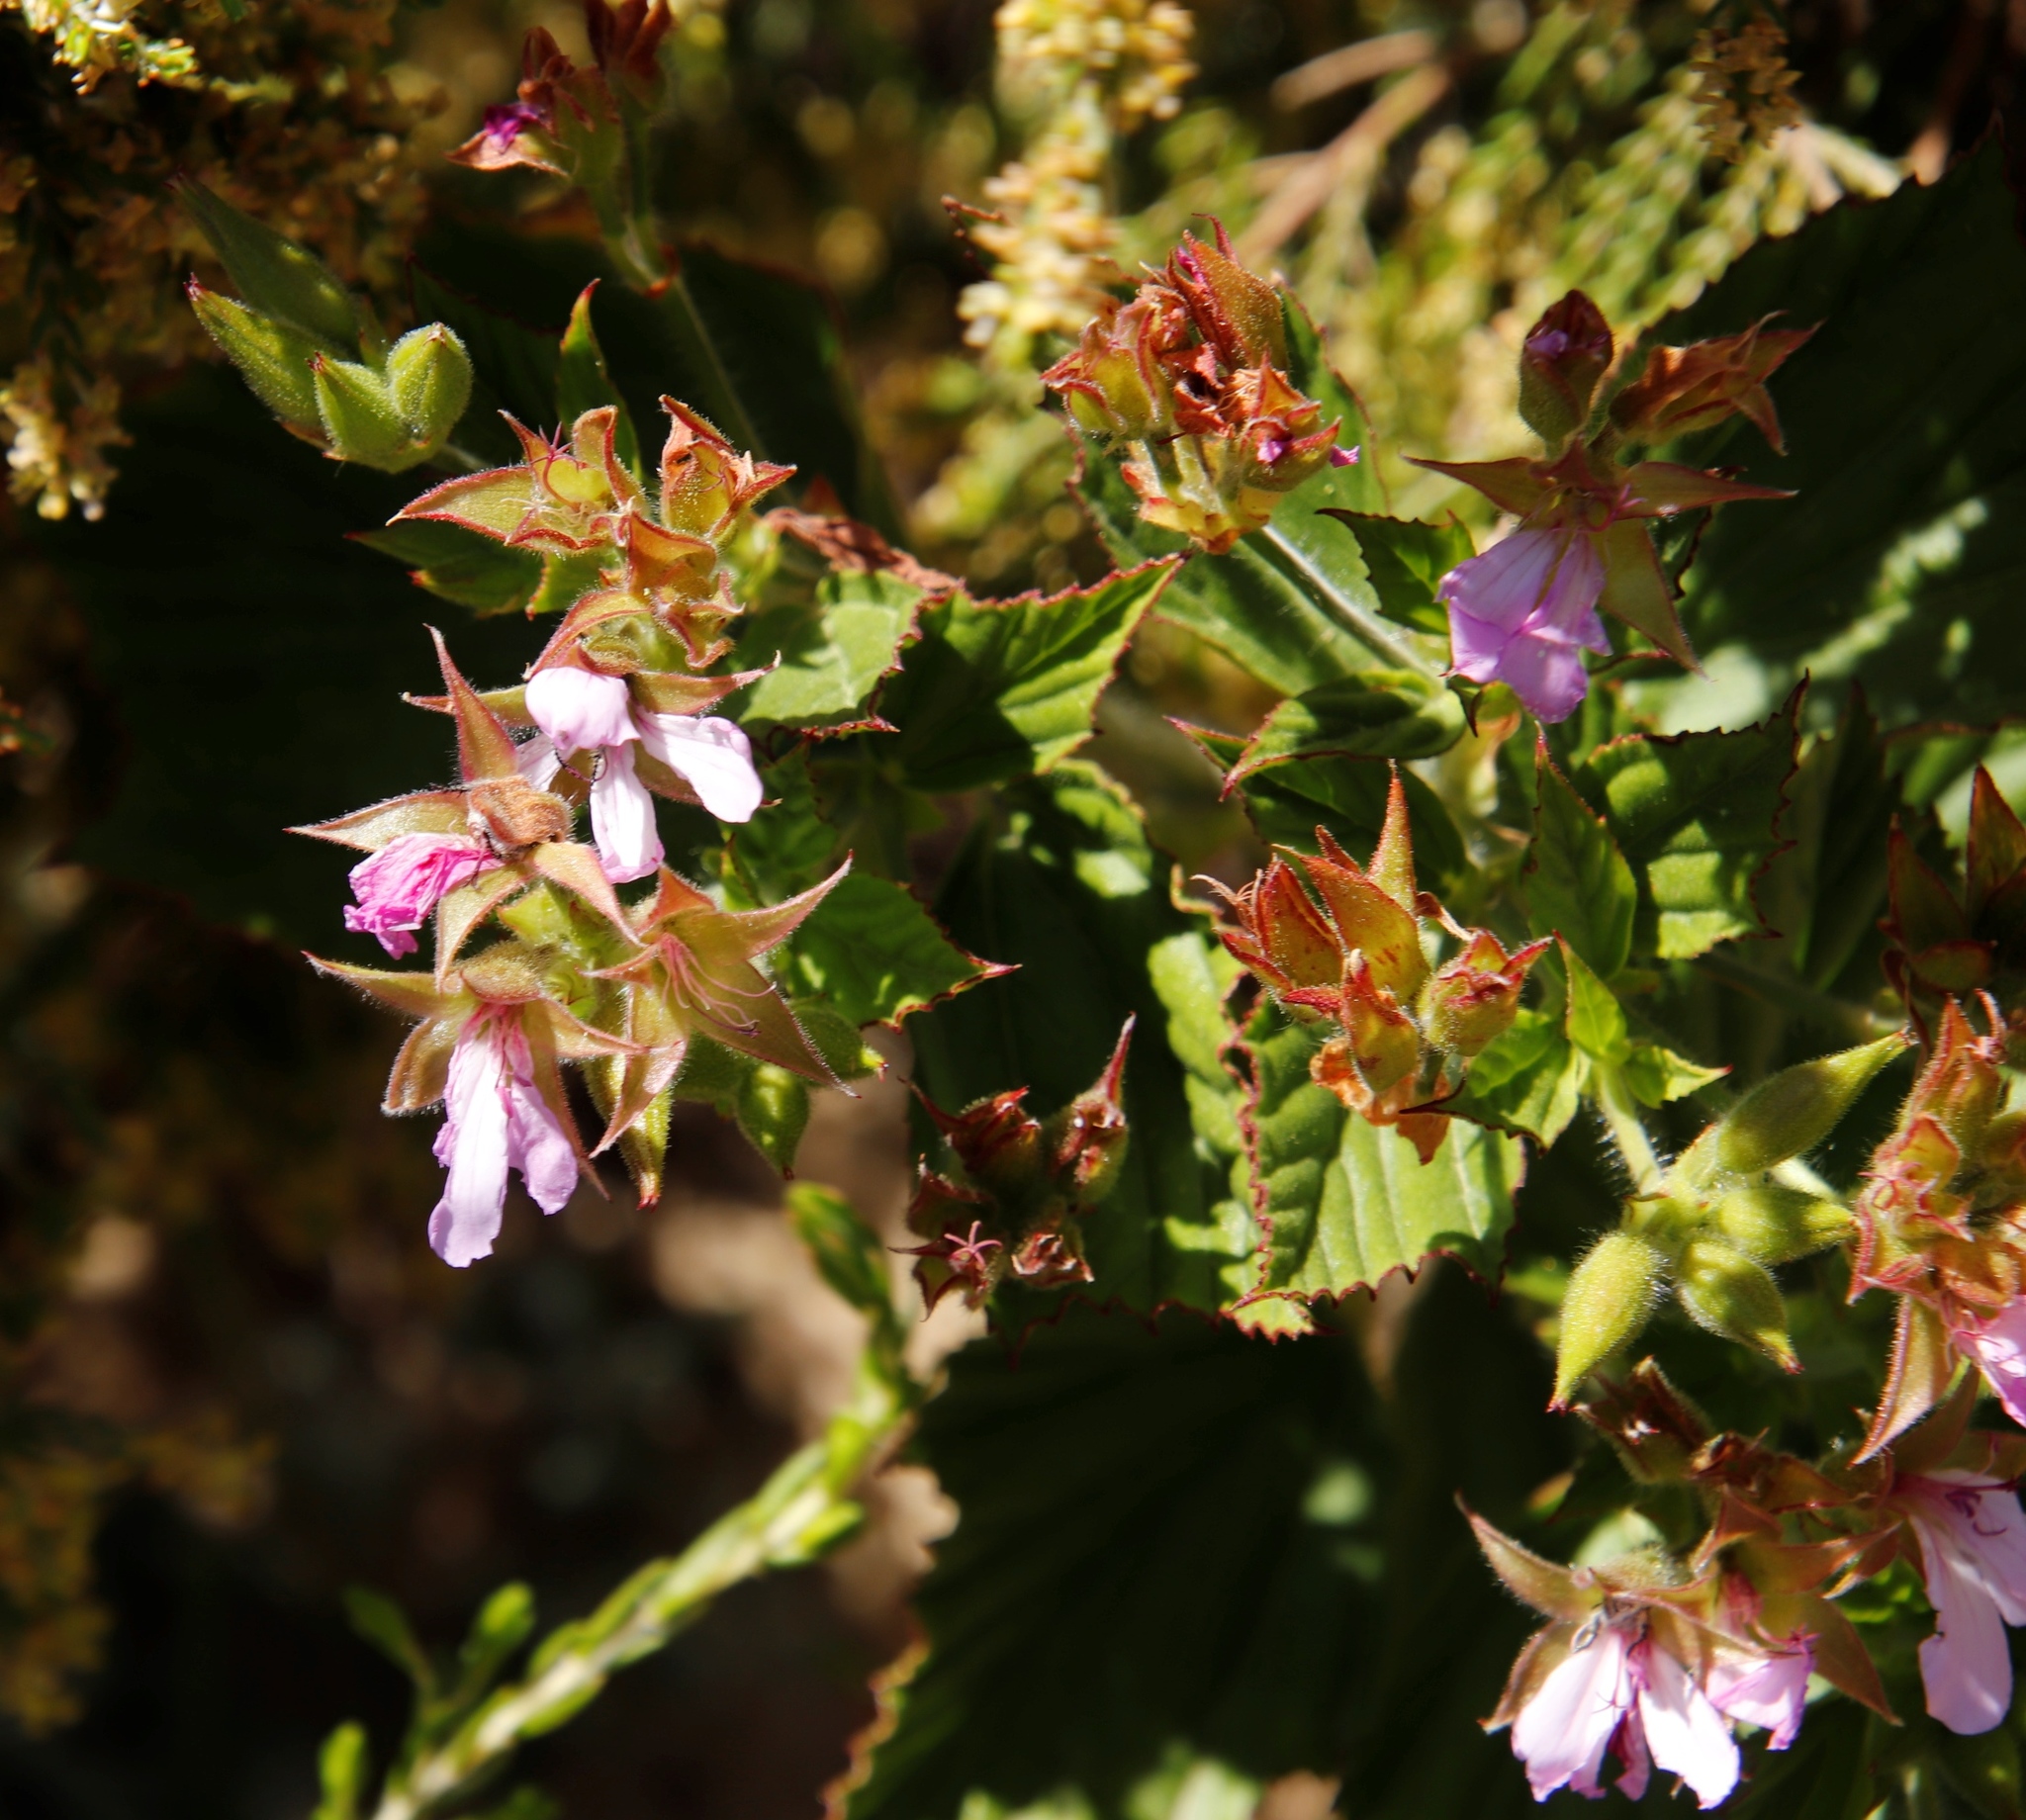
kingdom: Plantae
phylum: Tracheophyta
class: Magnoliopsida
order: Geraniales
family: Geraniaceae
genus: Pelargonium
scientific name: Pelargonium cucullatum
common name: Tree pelargonium
